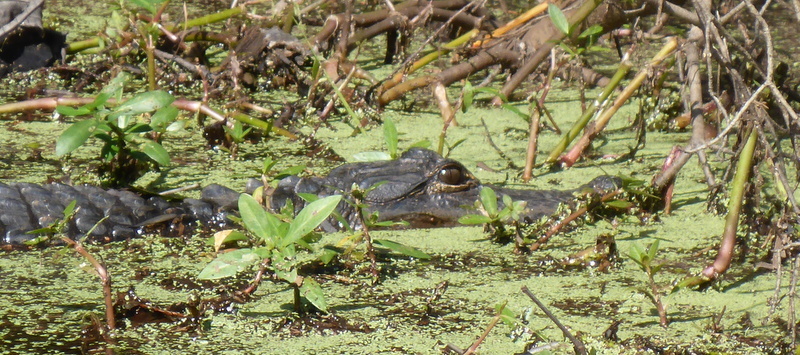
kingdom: Animalia
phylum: Chordata
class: Crocodylia
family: Alligatoridae
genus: Alligator
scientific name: Alligator mississippiensis
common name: American alligator
